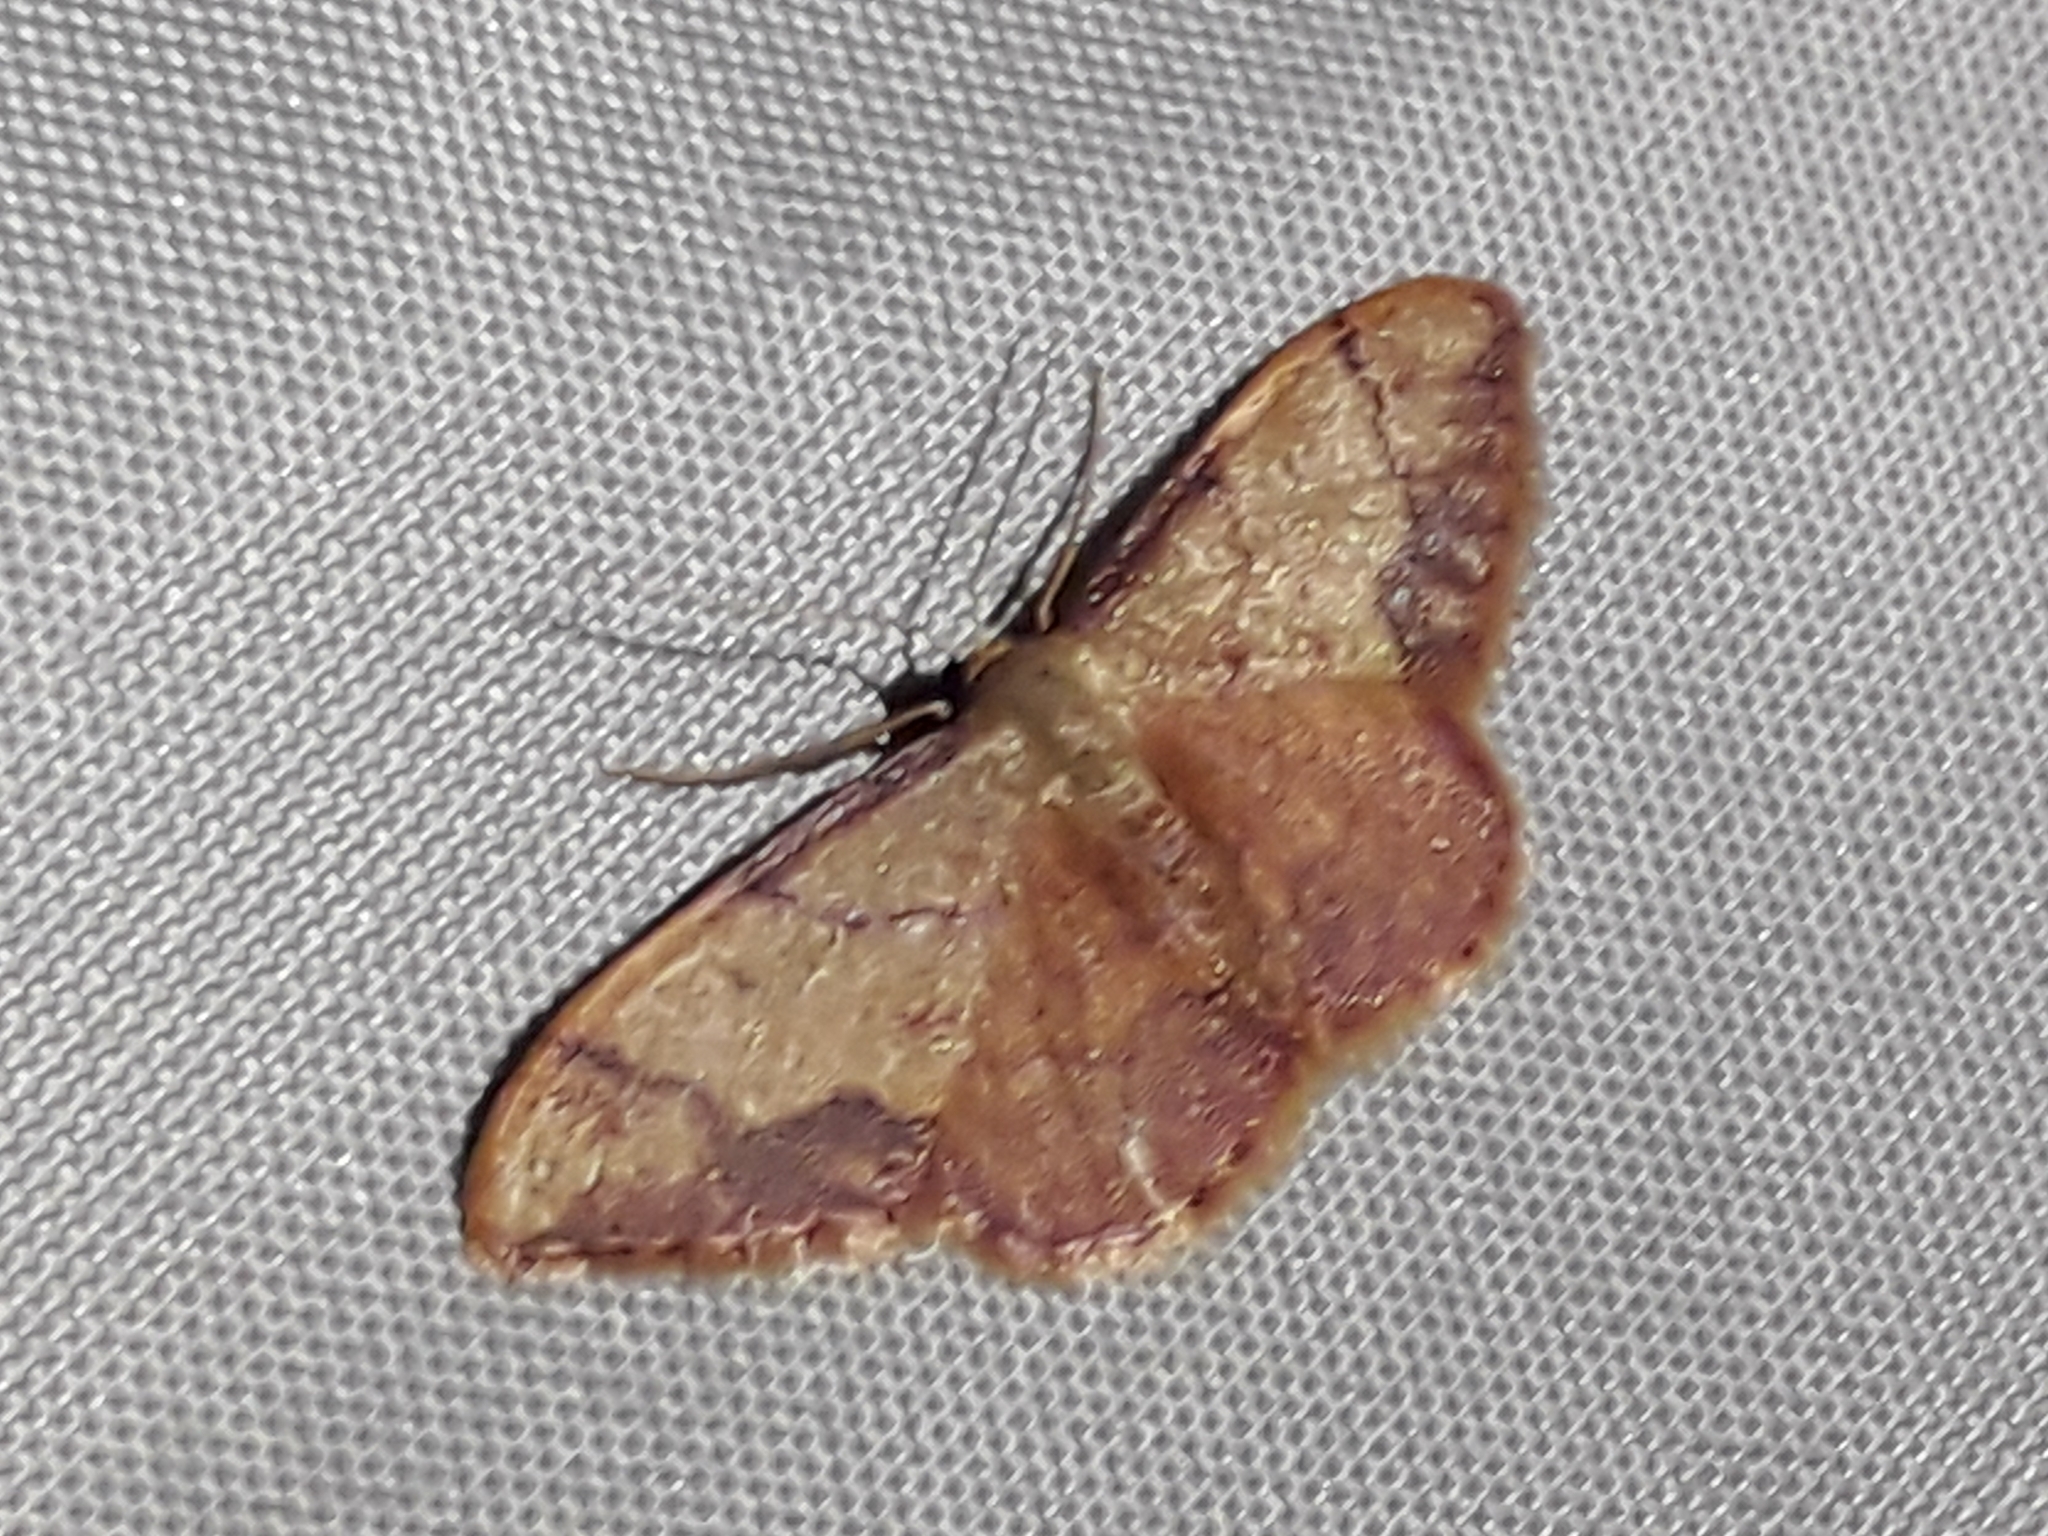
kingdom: Animalia
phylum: Arthropoda
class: Insecta
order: Lepidoptera
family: Geometridae
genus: Idaea
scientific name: Idaea ostrinaria
